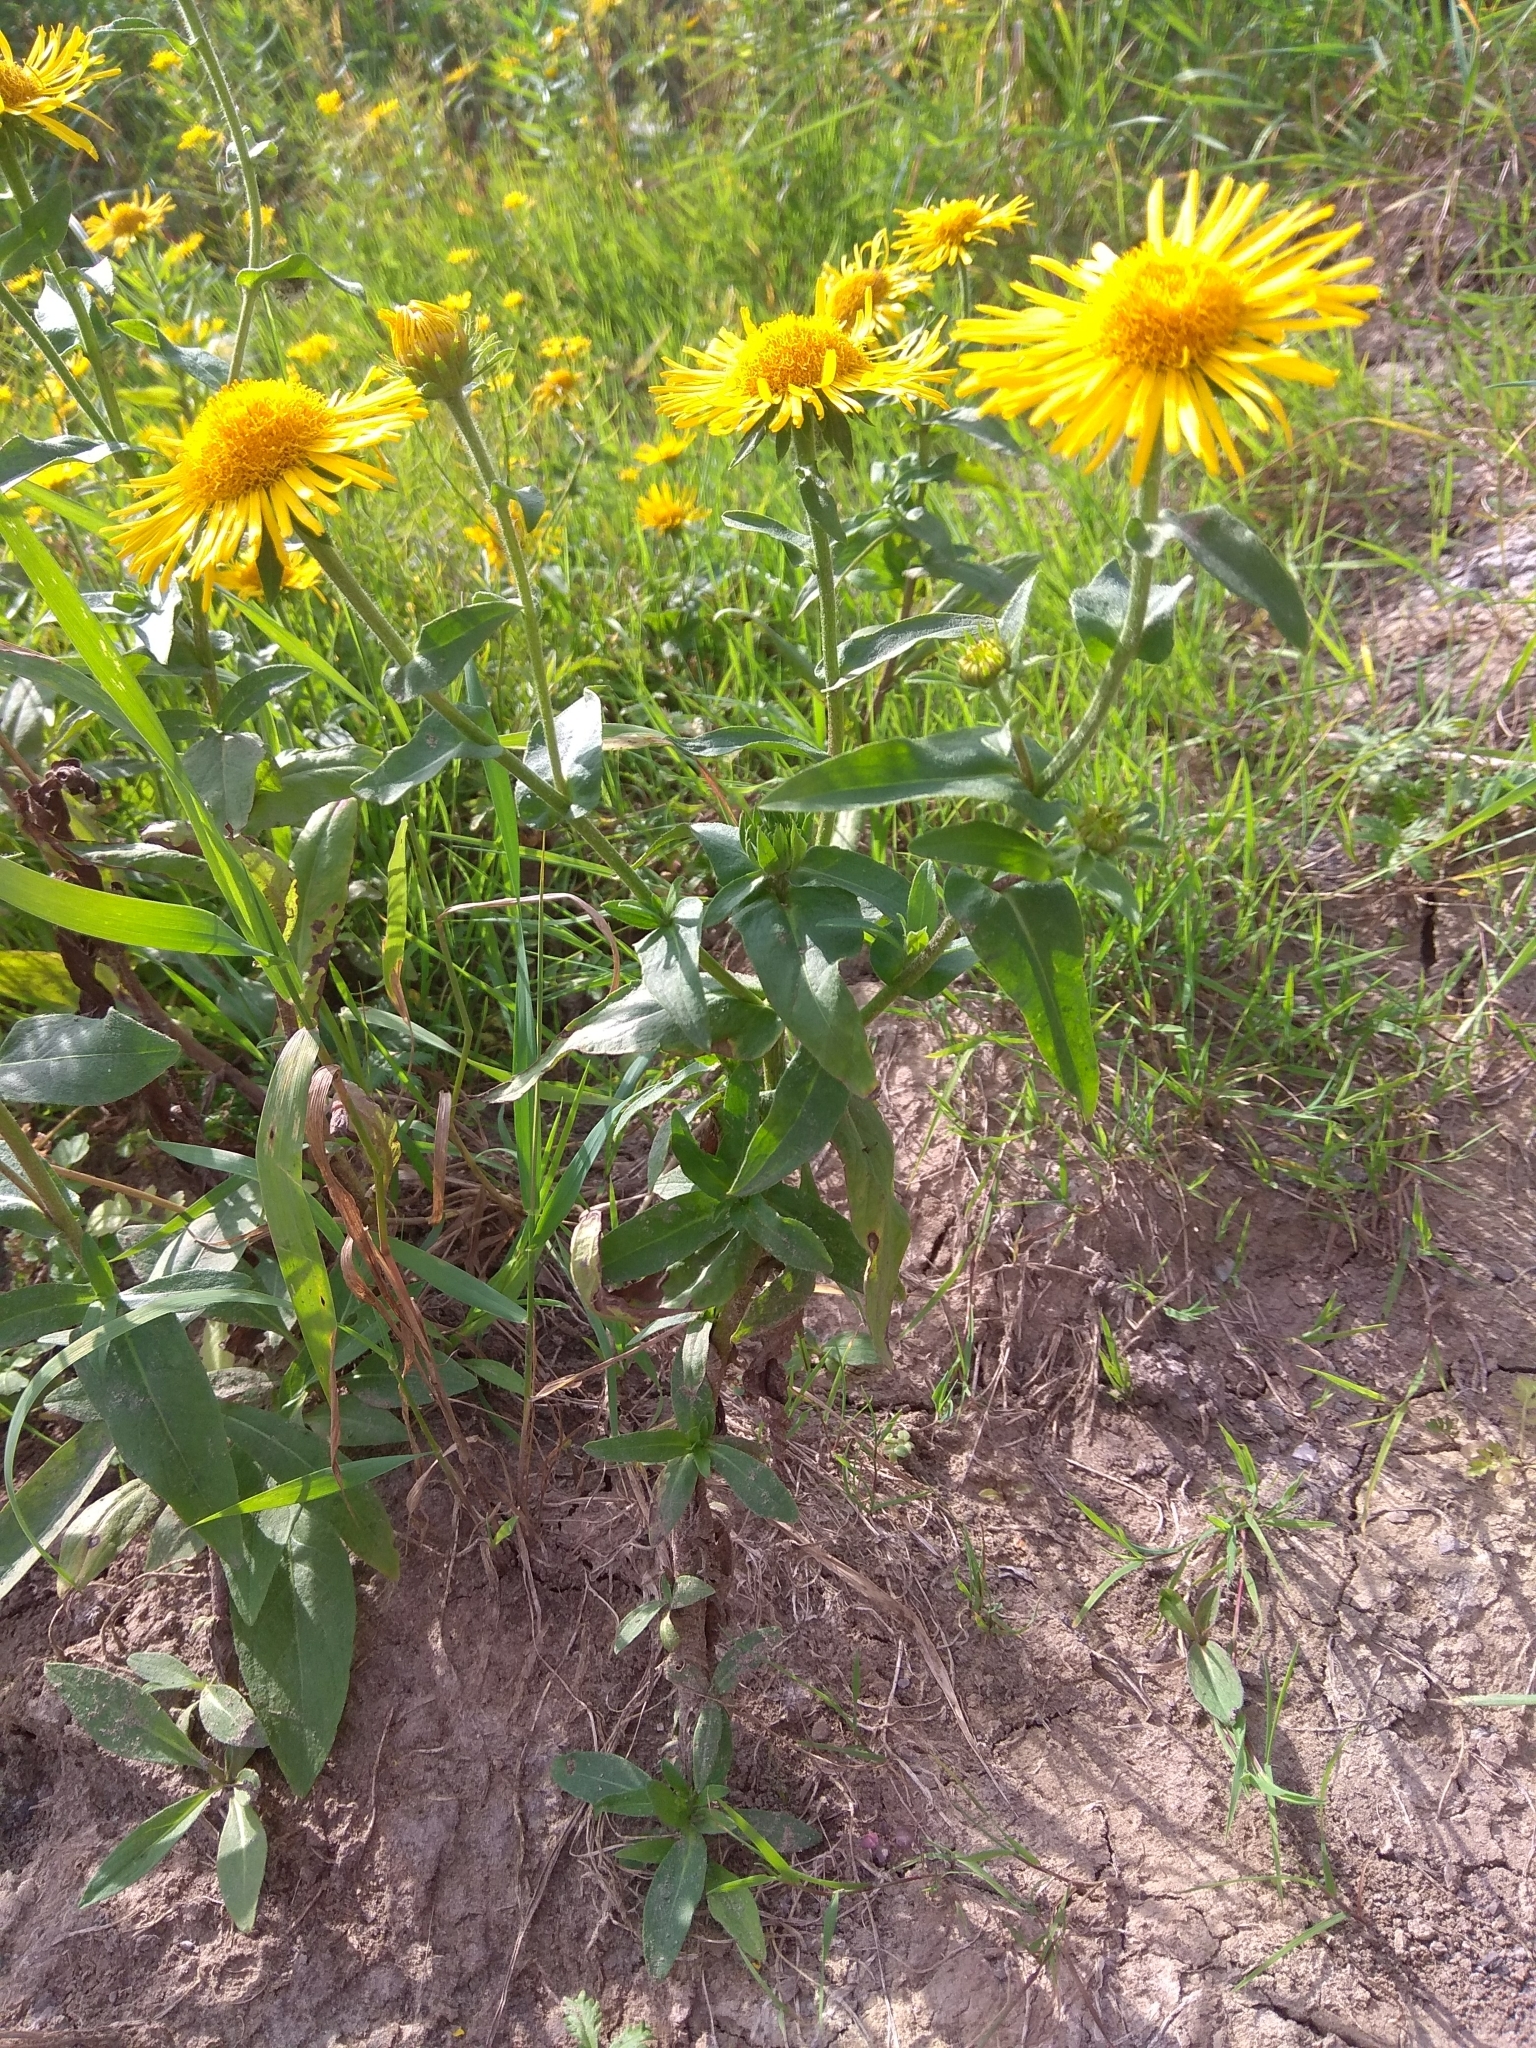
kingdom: Plantae
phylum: Tracheophyta
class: Magnoliopsida
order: Asterales
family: Asteraceae
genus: Pentanema
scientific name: Pentanema britannicum
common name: British elecampane
